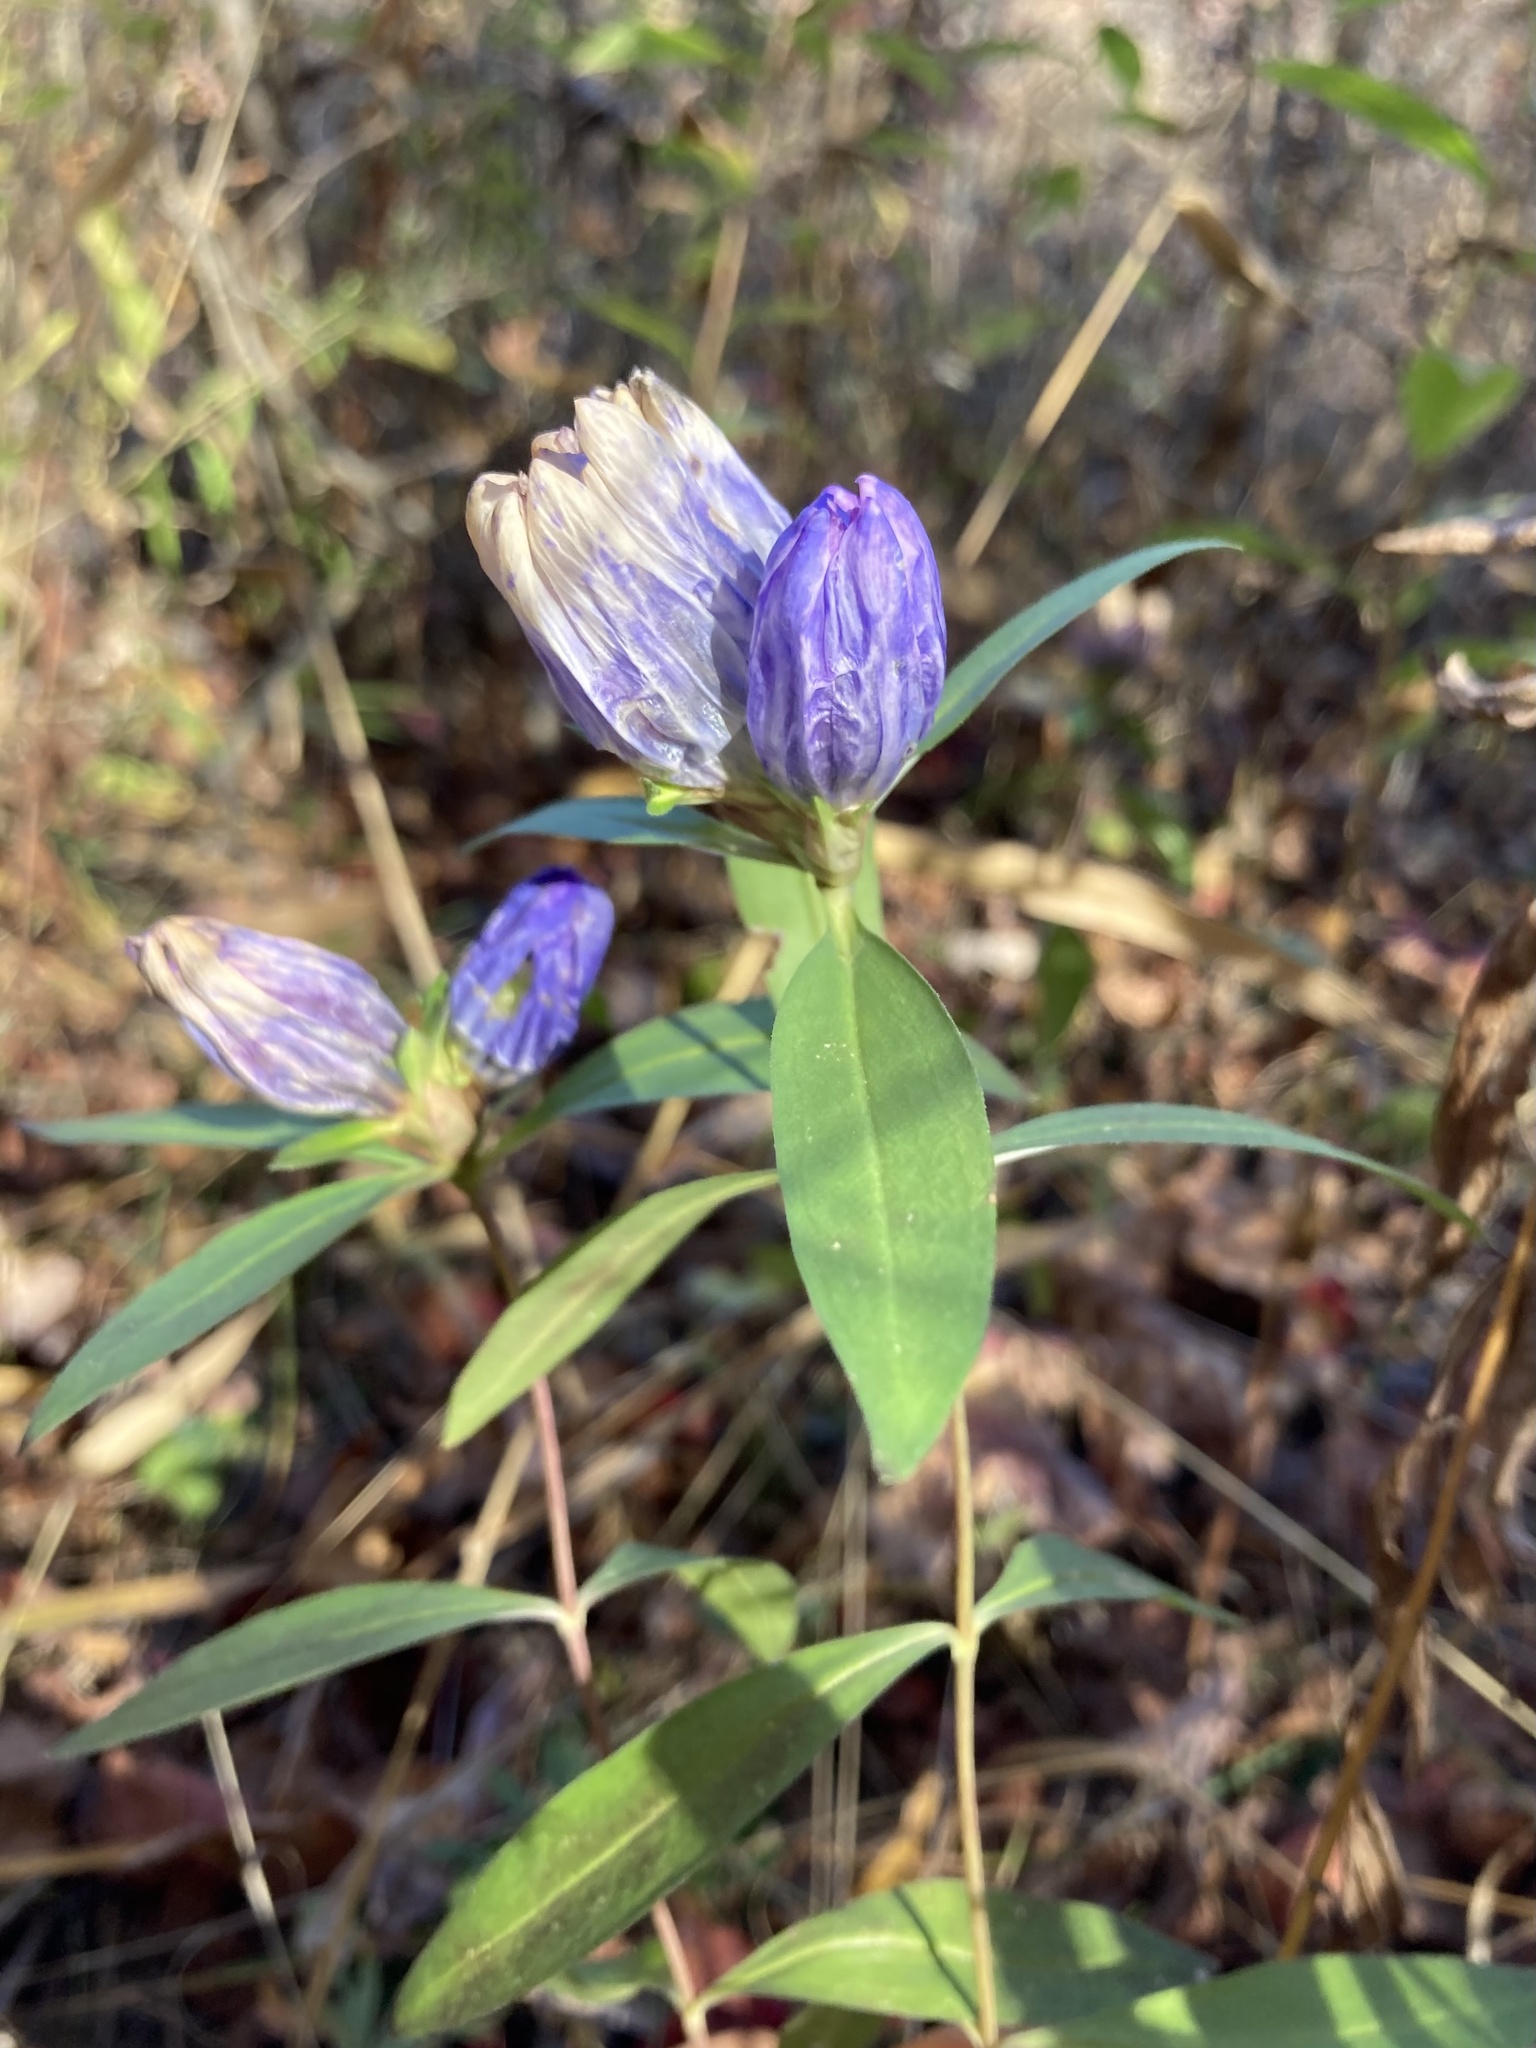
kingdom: Plantae
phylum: Tracheophyta
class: Magnoliopsida
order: Gentianales
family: Gentianaceae
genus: Gentiana
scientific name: Gentiana saponaria
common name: Soapwort gentian
